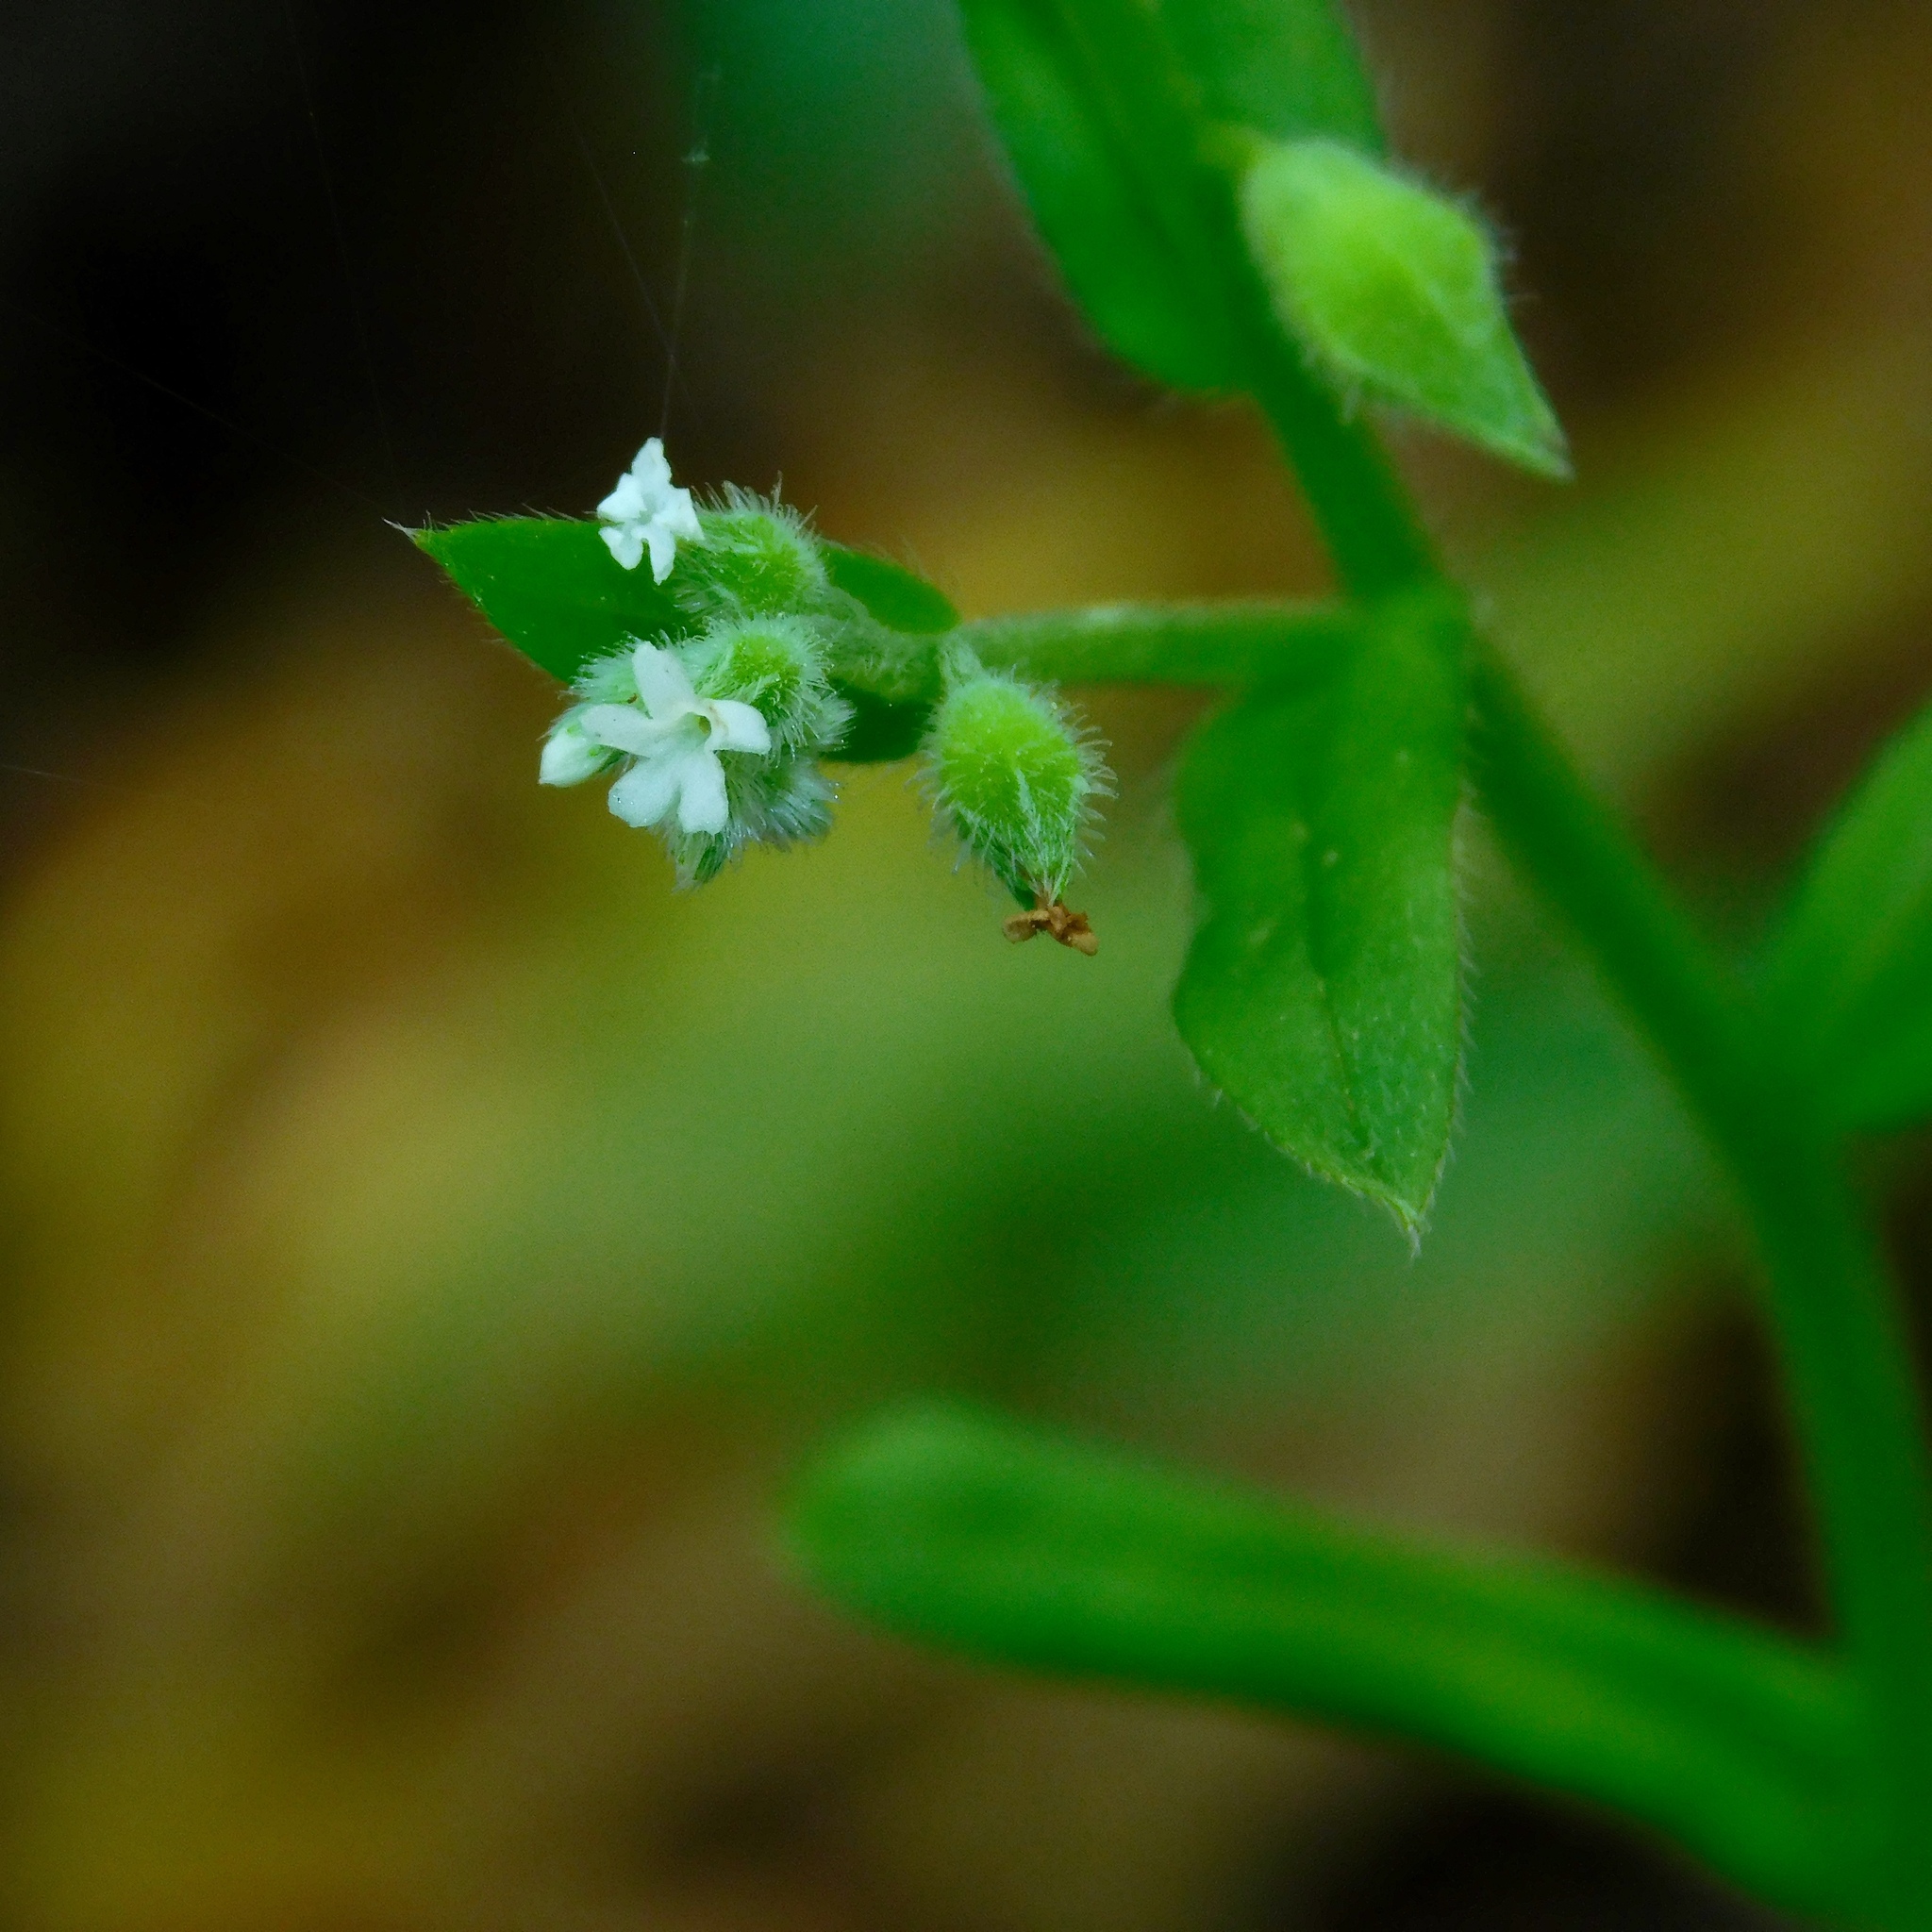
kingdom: Plantae
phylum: Tracheophyta
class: Magnoliopsida
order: Boraginales
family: Boraginaceae
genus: Myosotis
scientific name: Myosotis macrosperma
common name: Large-seed forget-me-not
